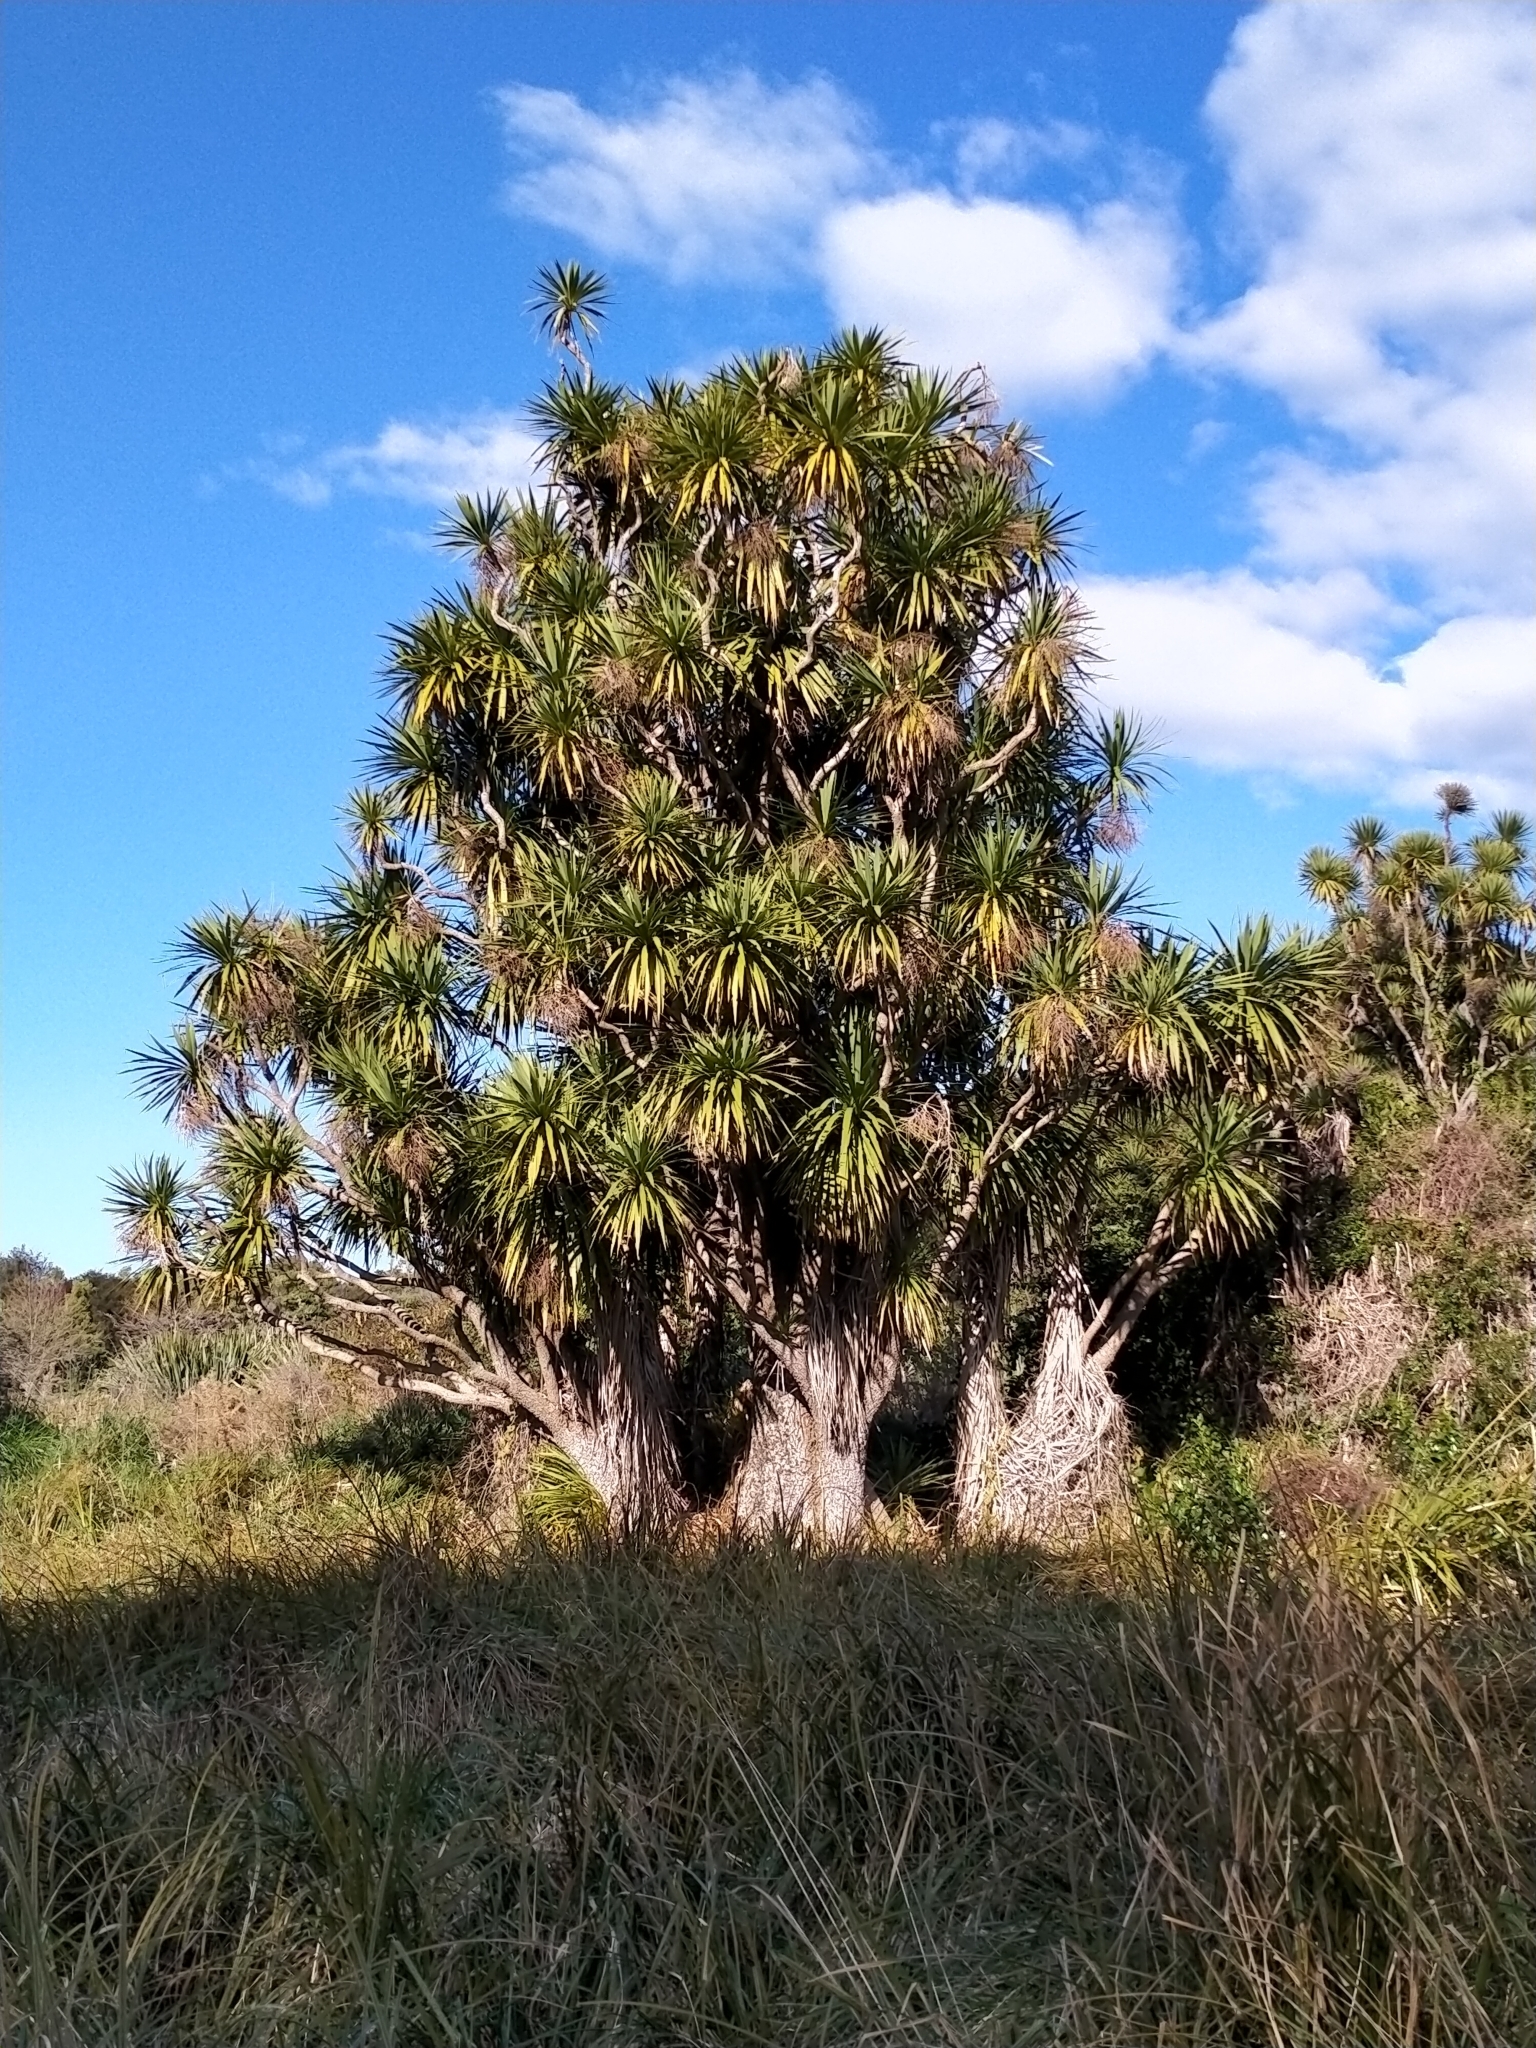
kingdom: Plantae
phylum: Tracheophyta
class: Liliopsida
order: Asparagales
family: Asparagaceae
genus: Cordyline
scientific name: Cordyline australis
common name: Cabbage-palm
